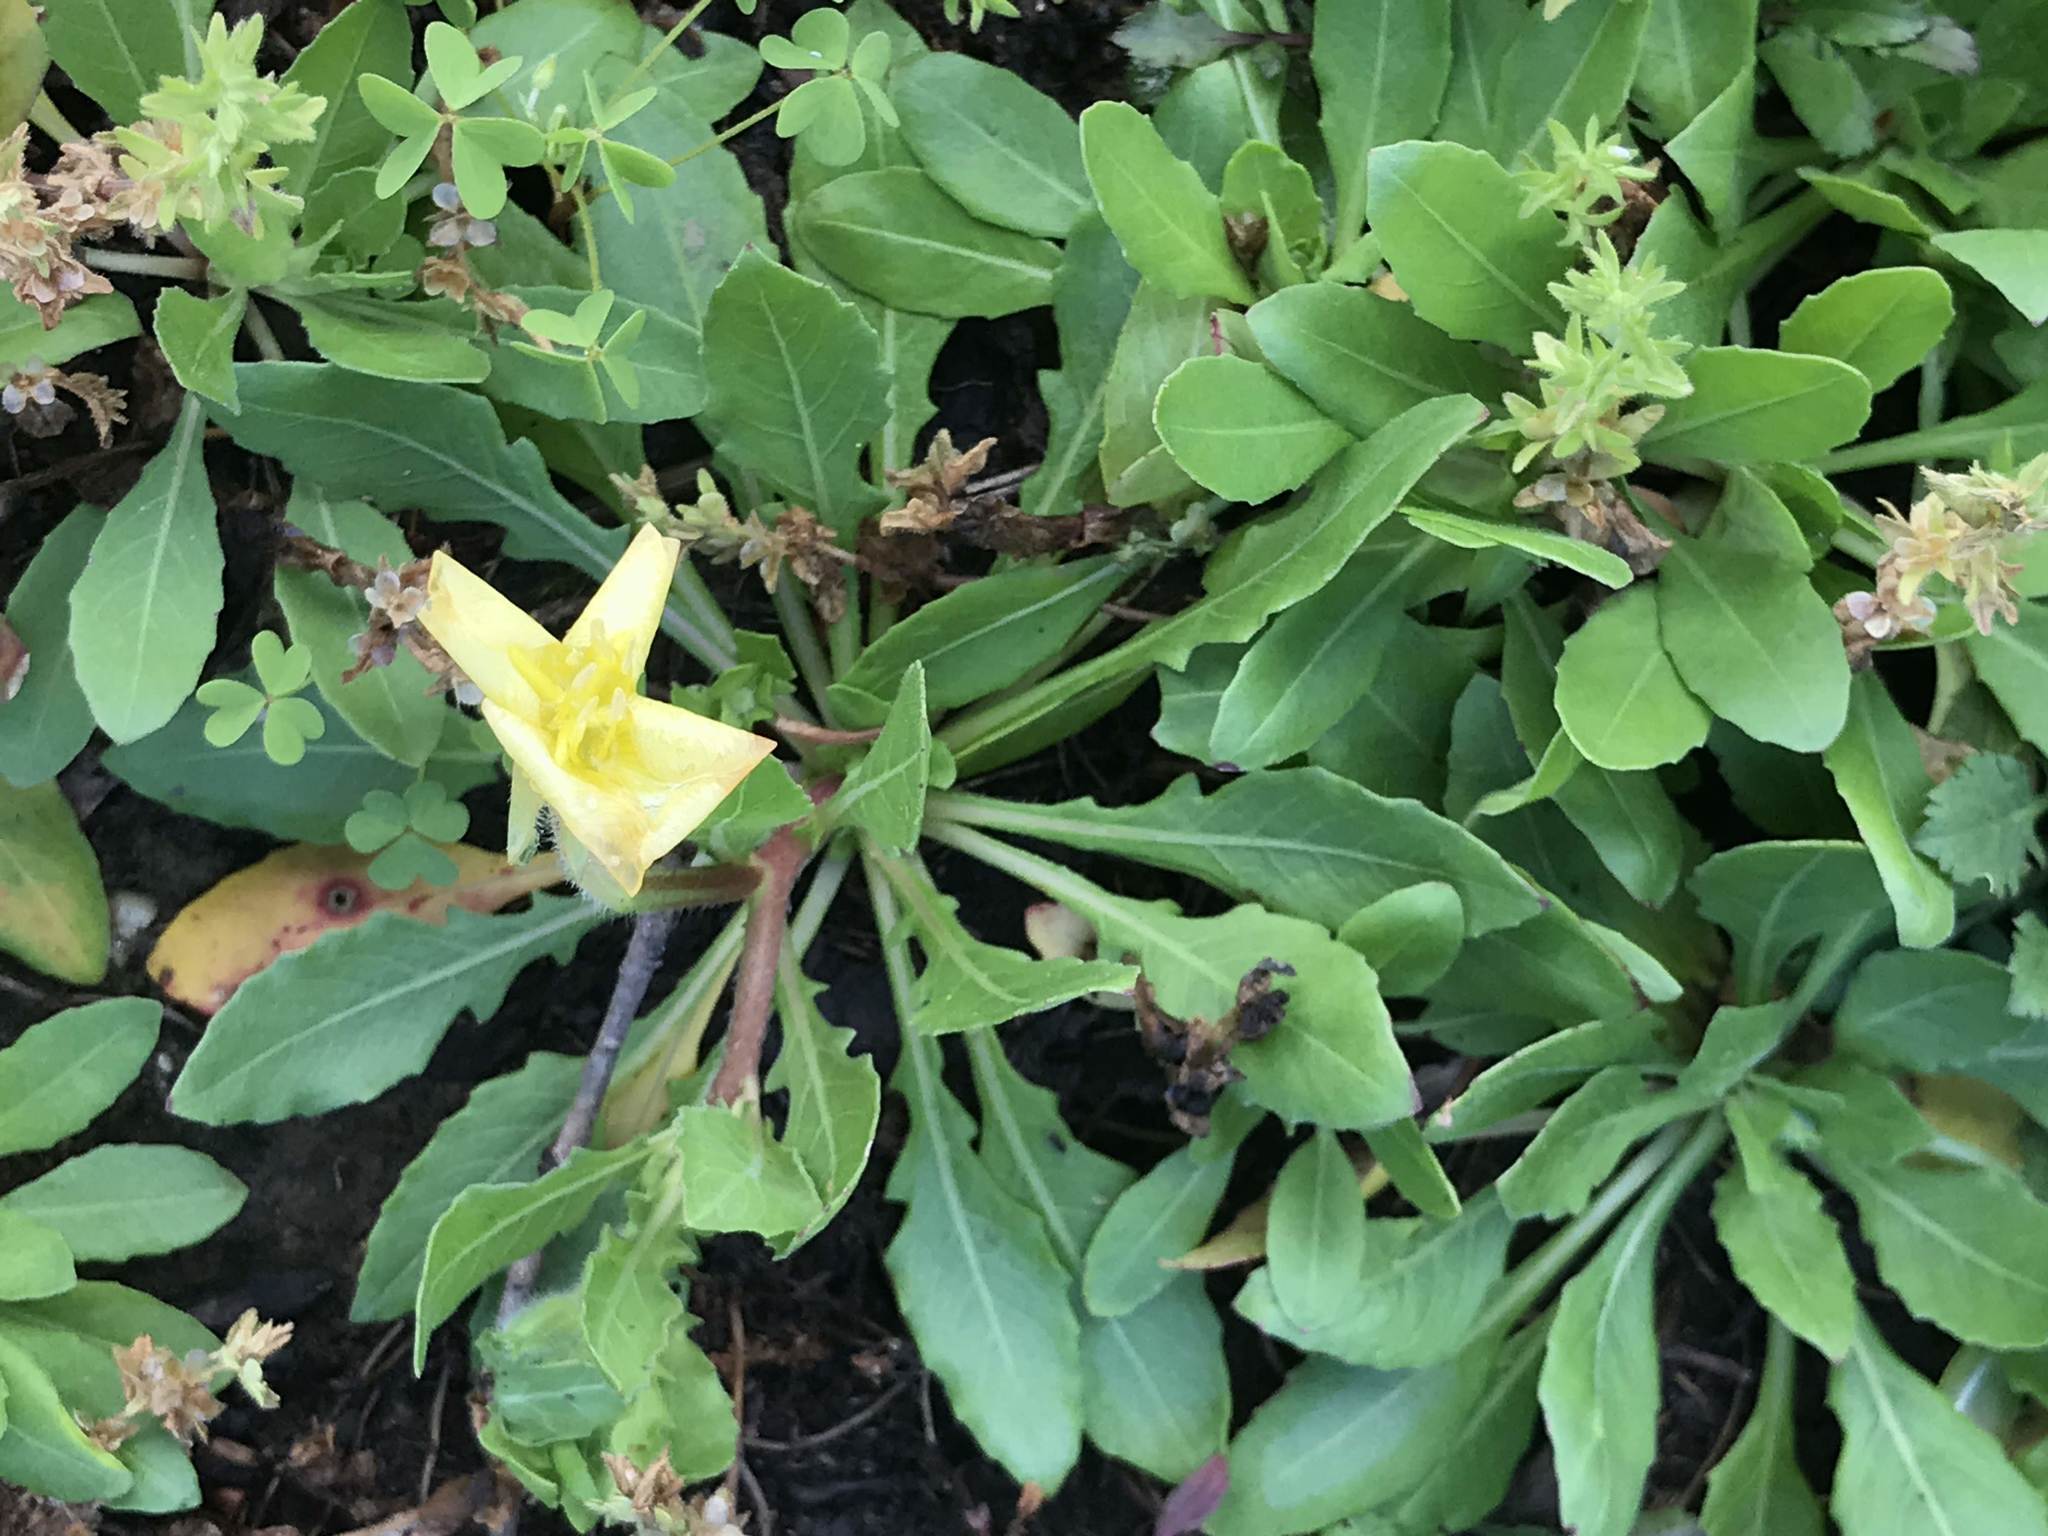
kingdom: Plantae
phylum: Tracheophyta
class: Magnoliopsida
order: Myrtales
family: Onagraceae
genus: Oenothera
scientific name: Oenothera laciniata
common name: Cut-leaved evening-primrose
